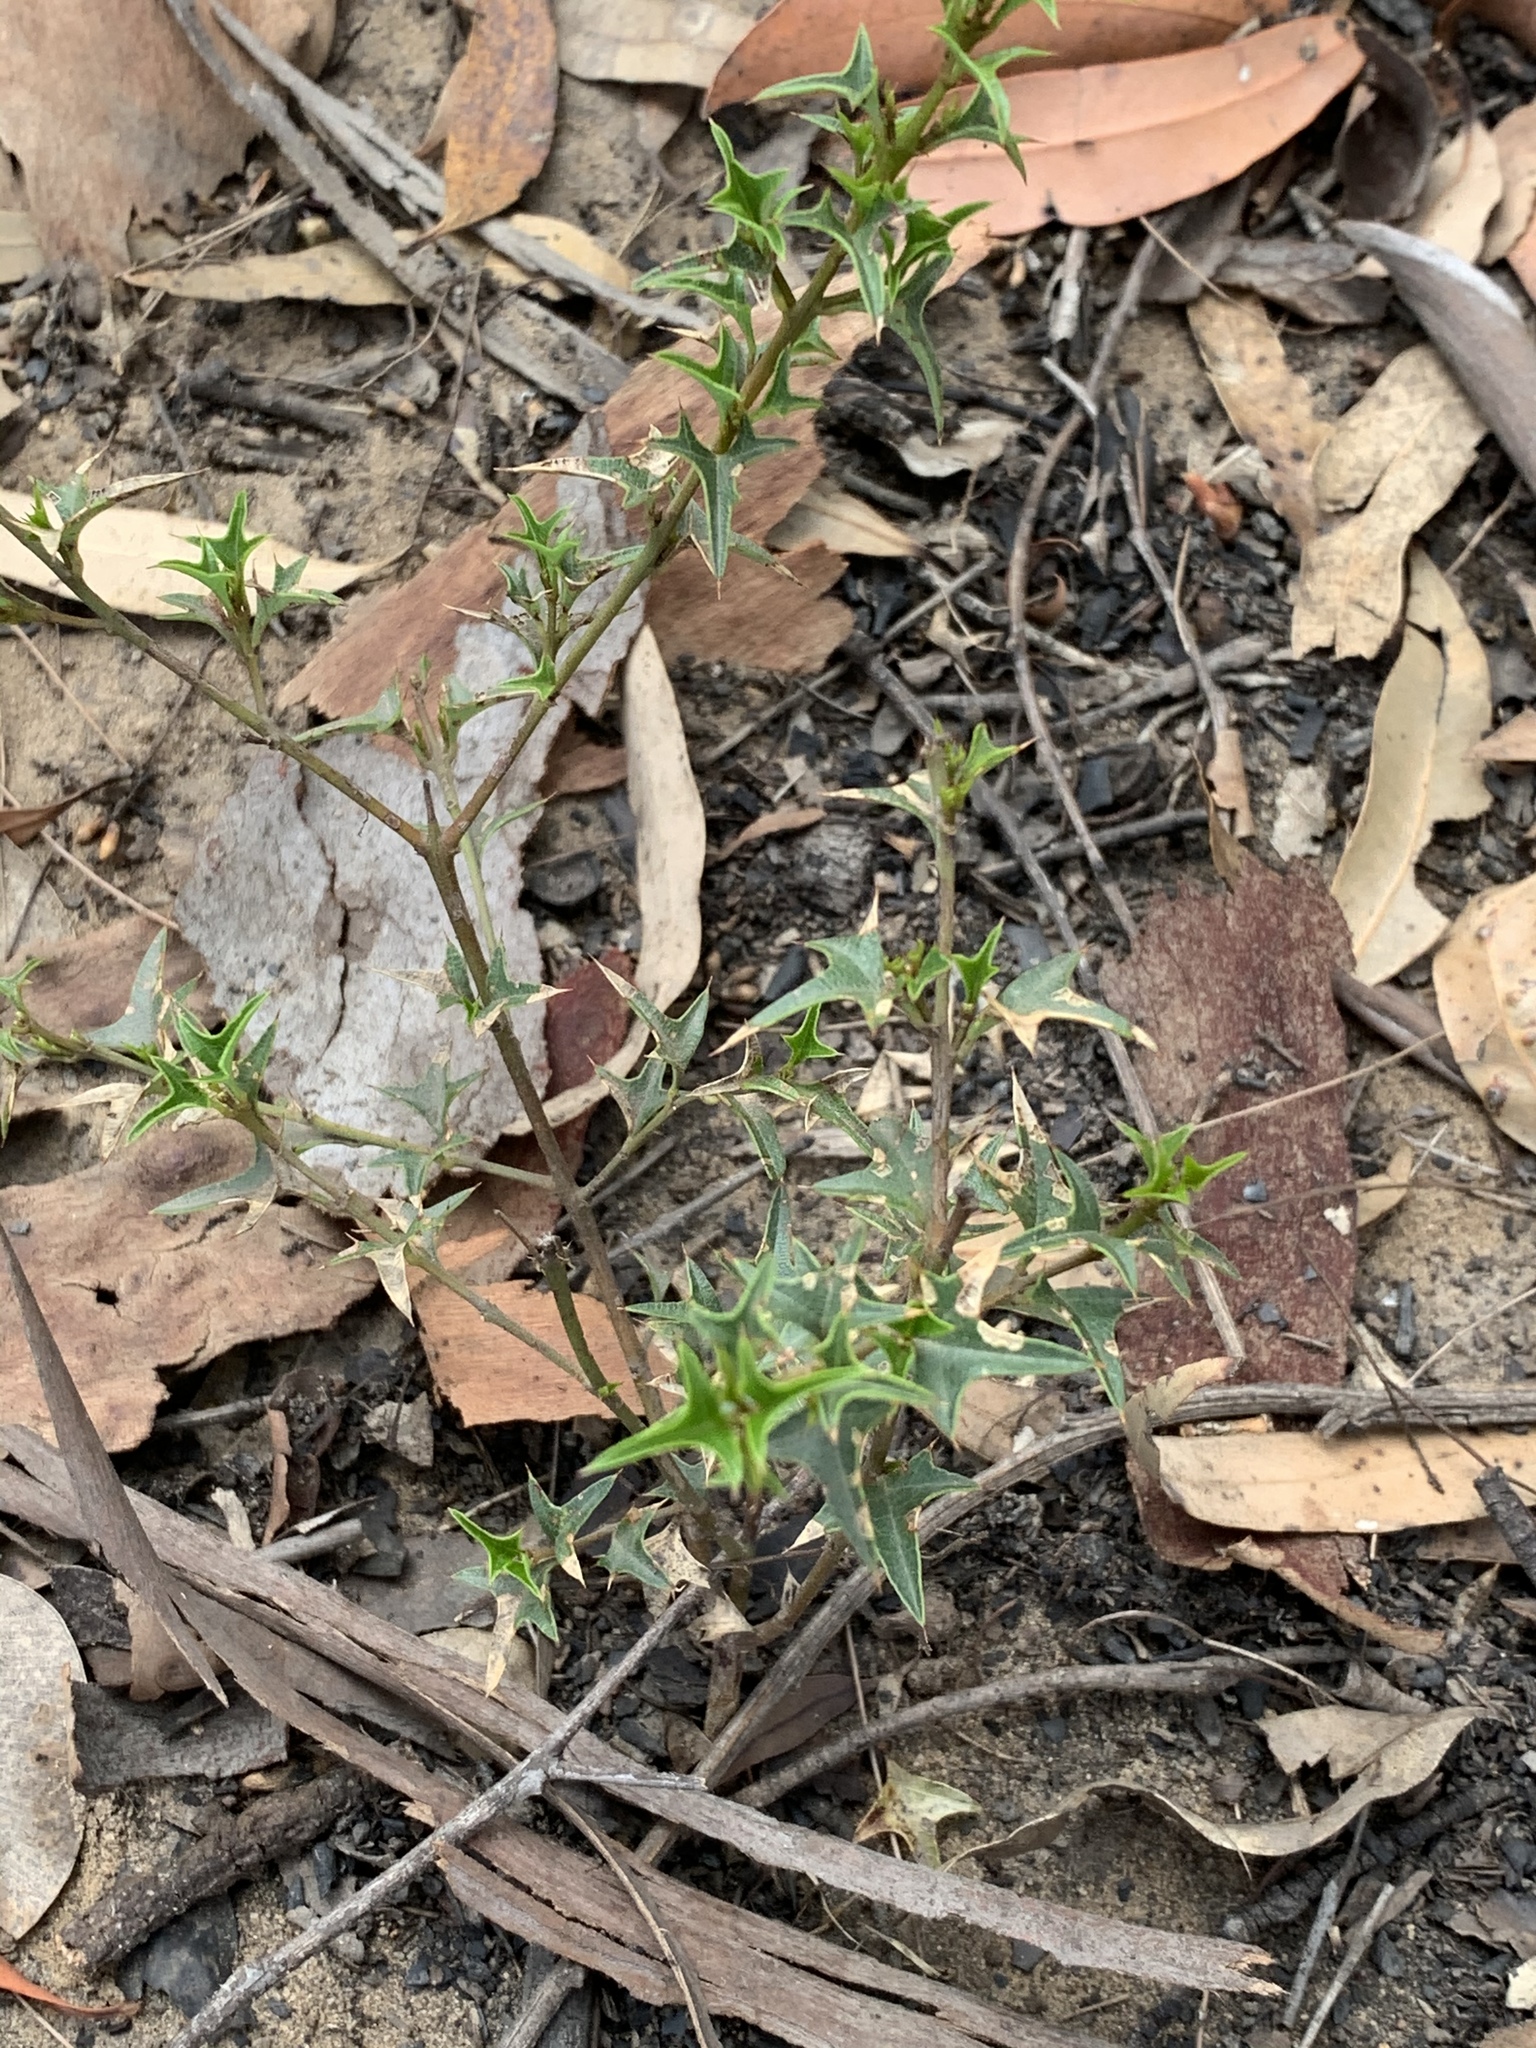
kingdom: Plantae
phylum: Tracheophyta
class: Magnoliopsida
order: Fabales
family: Fabaceae
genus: Podolobium
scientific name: Podolobium ilicifolium
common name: Native holly
